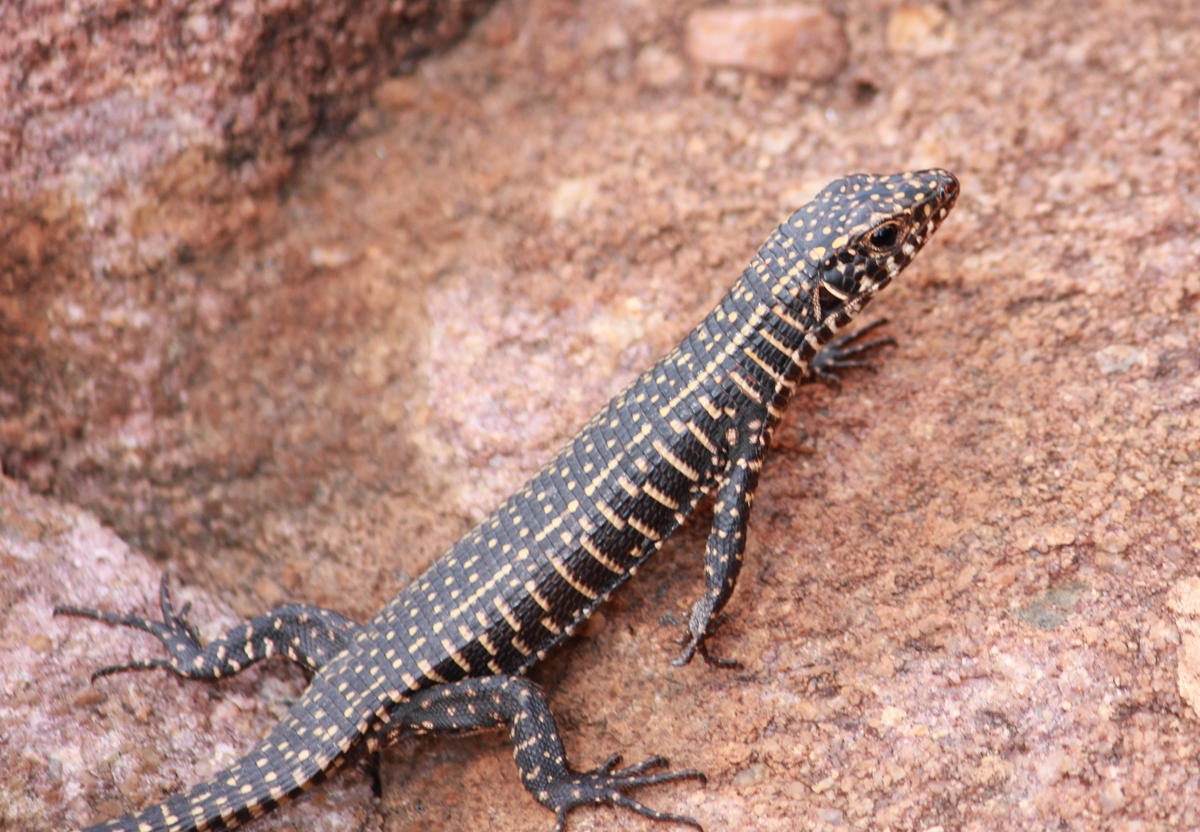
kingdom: Animalia
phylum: Chordata
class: Squamata
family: Gerrhosauridae
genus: Matobosaurus
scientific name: Matobosaurus validus
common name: Common giant plated lizard
